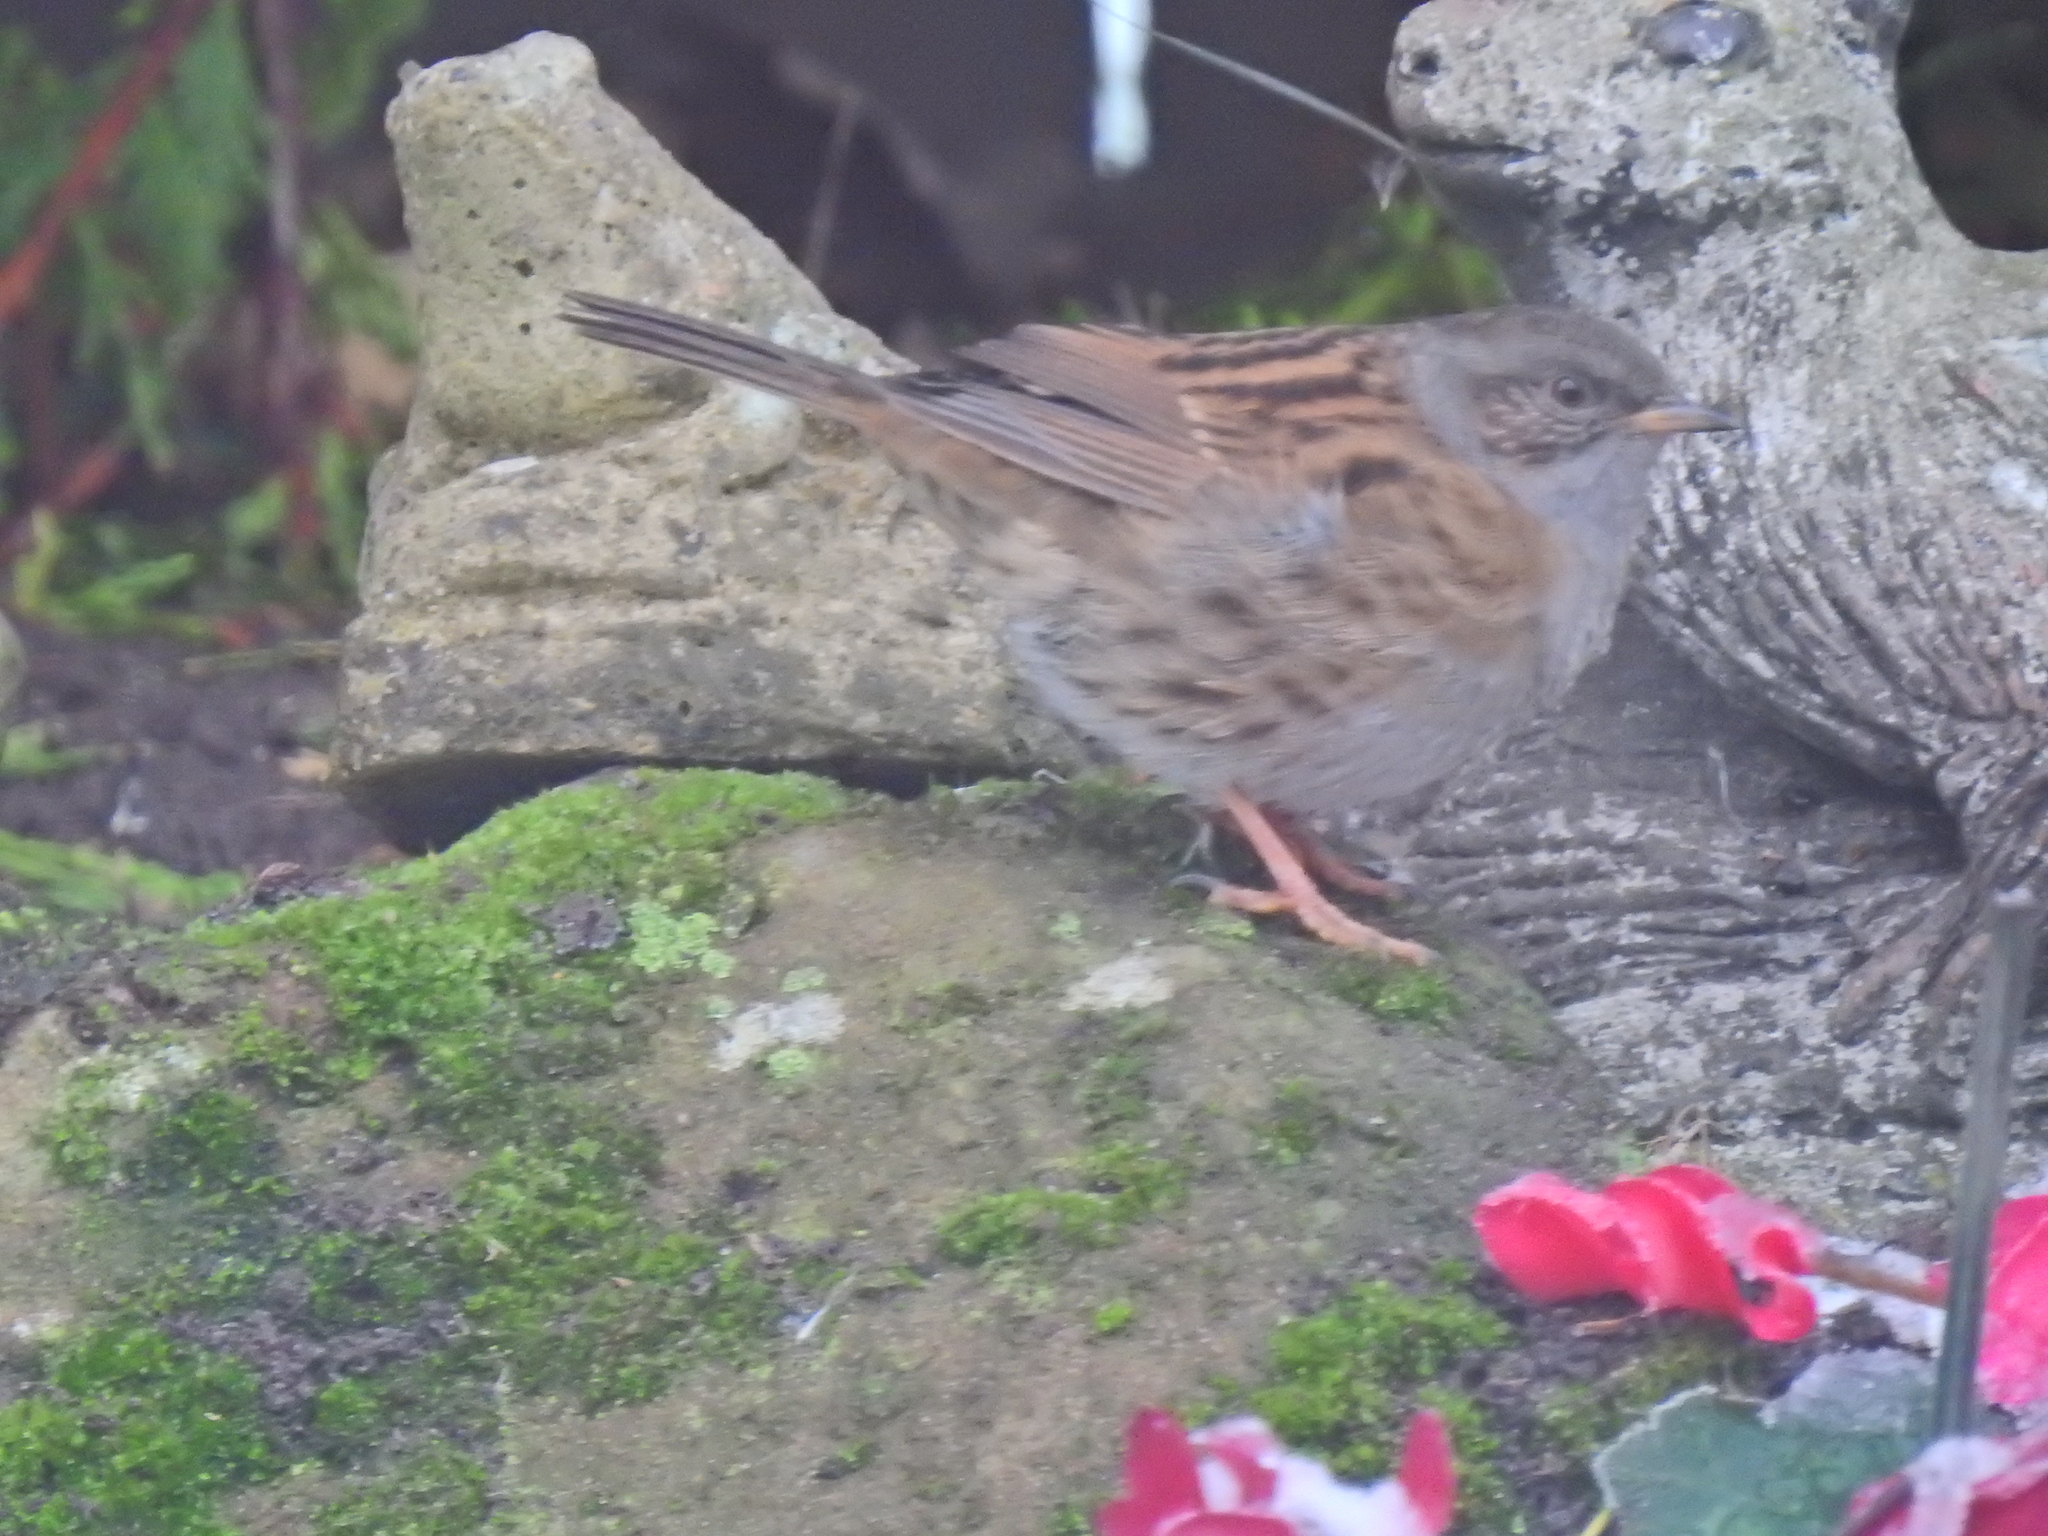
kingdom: Animalia
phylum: Chordata
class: Aves
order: Passeriformes
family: Prunellidae
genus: Prunella
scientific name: Prunella modularis
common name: Dunnock
